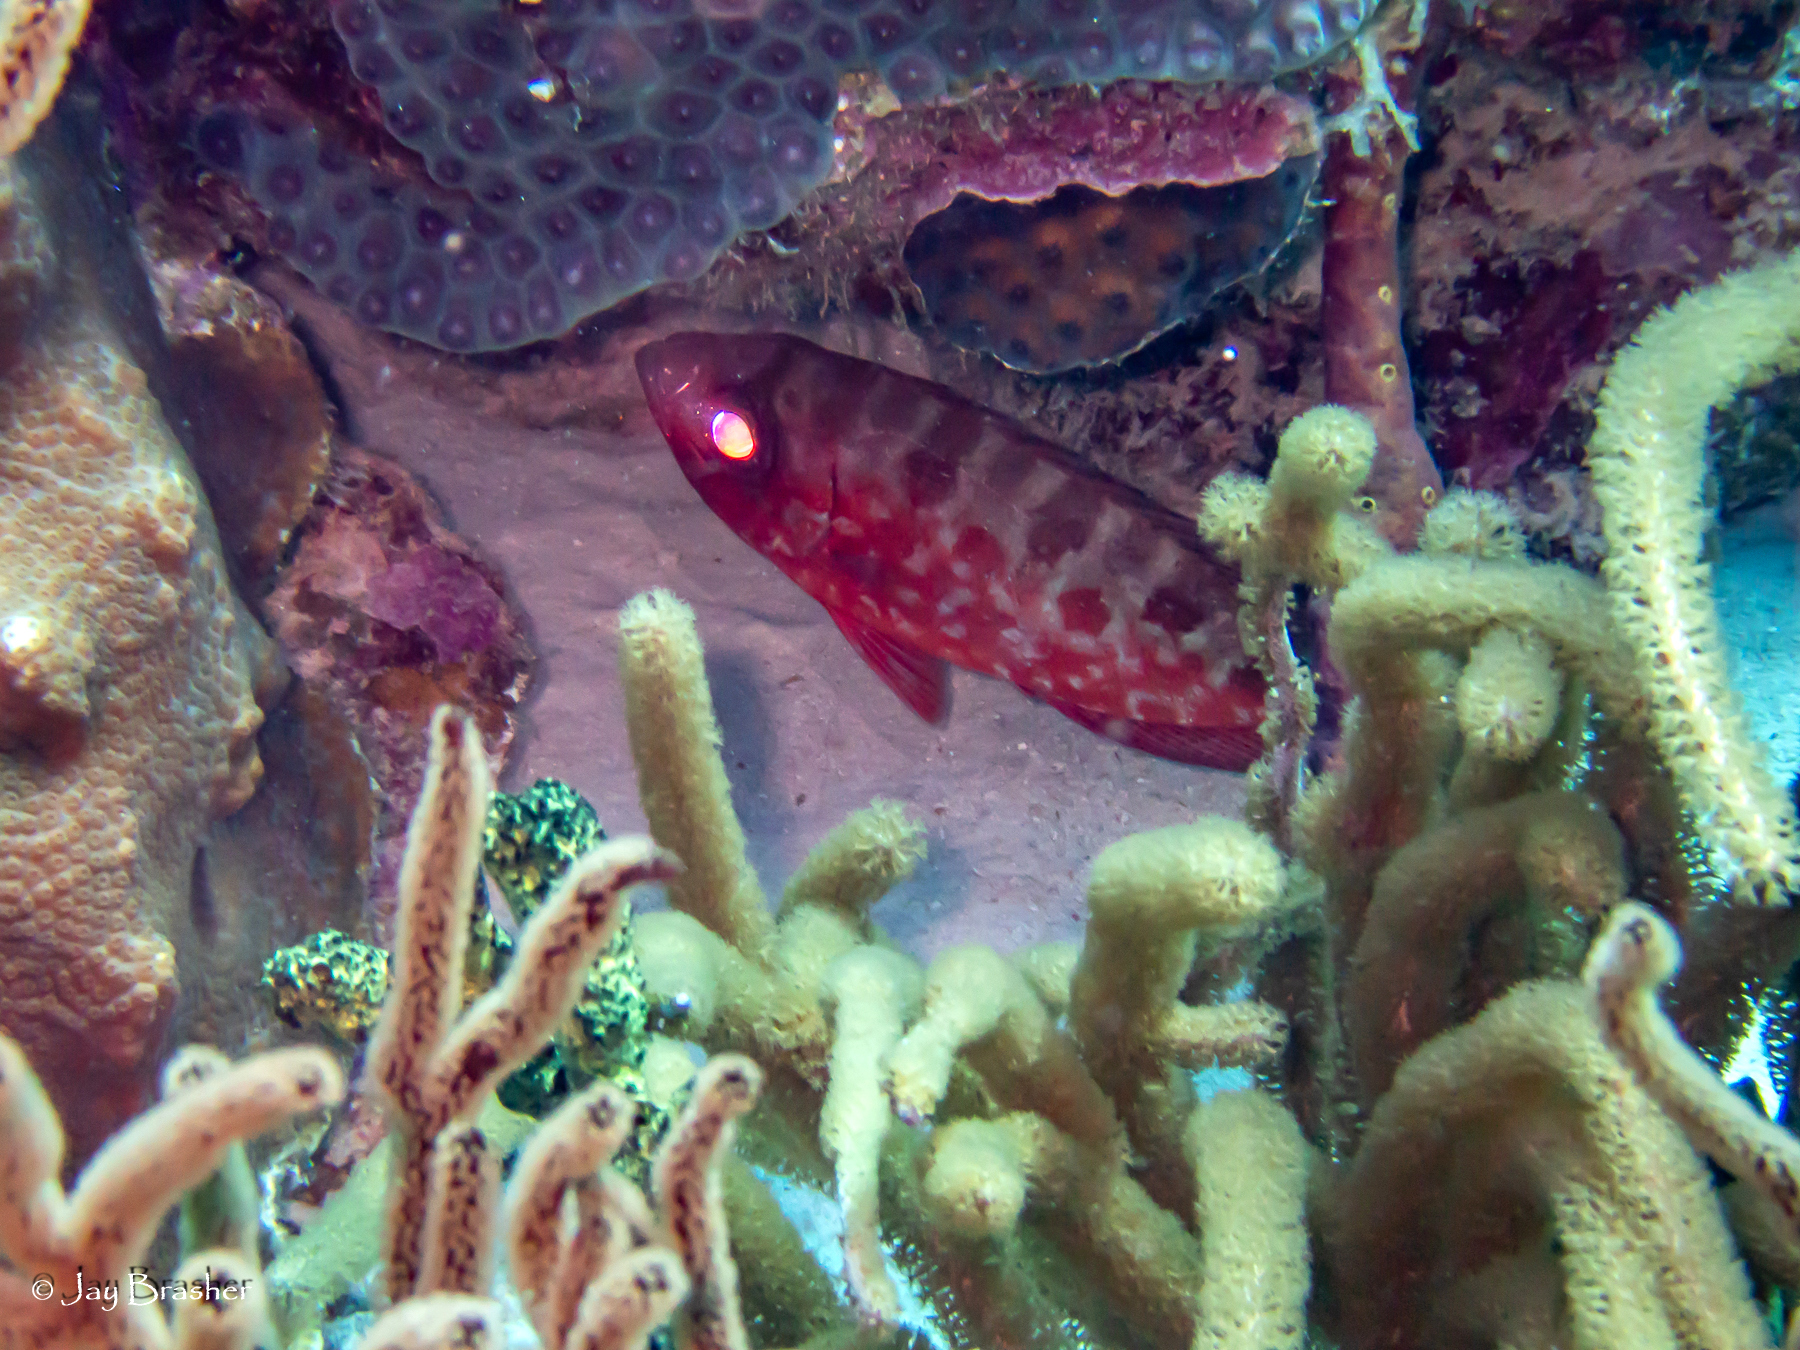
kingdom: Animalia
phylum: Chordata
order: Perciformes
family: Priacanthidae
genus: Heteropriacanthus
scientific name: Heteropriacanthus cruentatus
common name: Glasseye
